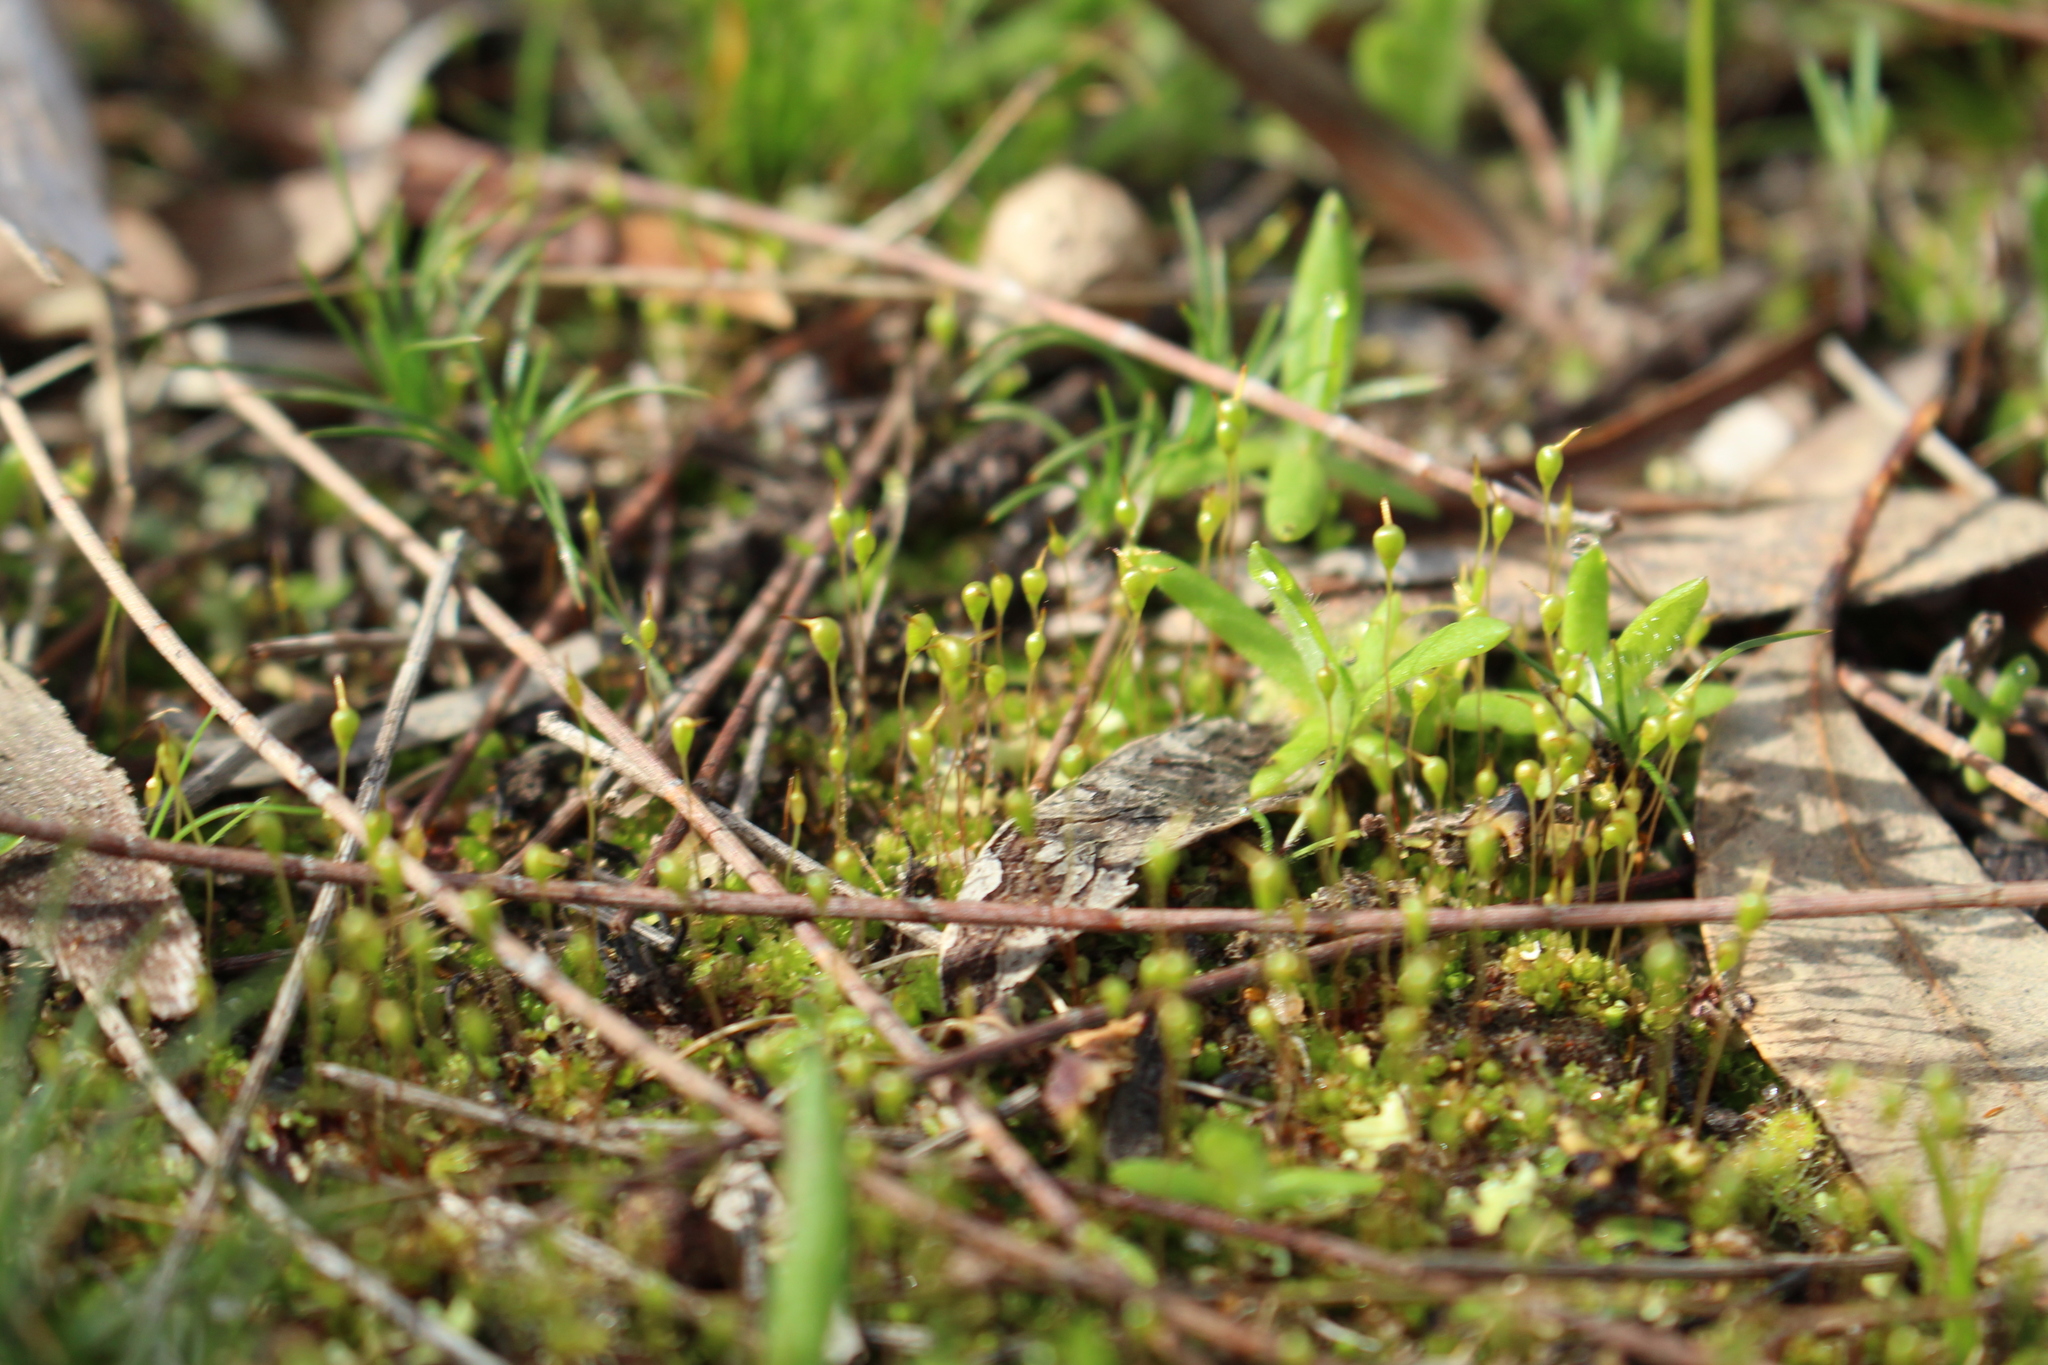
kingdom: Plantae
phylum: Bryophyta
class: Bryopsida
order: Funariales
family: Funariaceae
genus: Entosthodon
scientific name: Entosthodon subnudus
